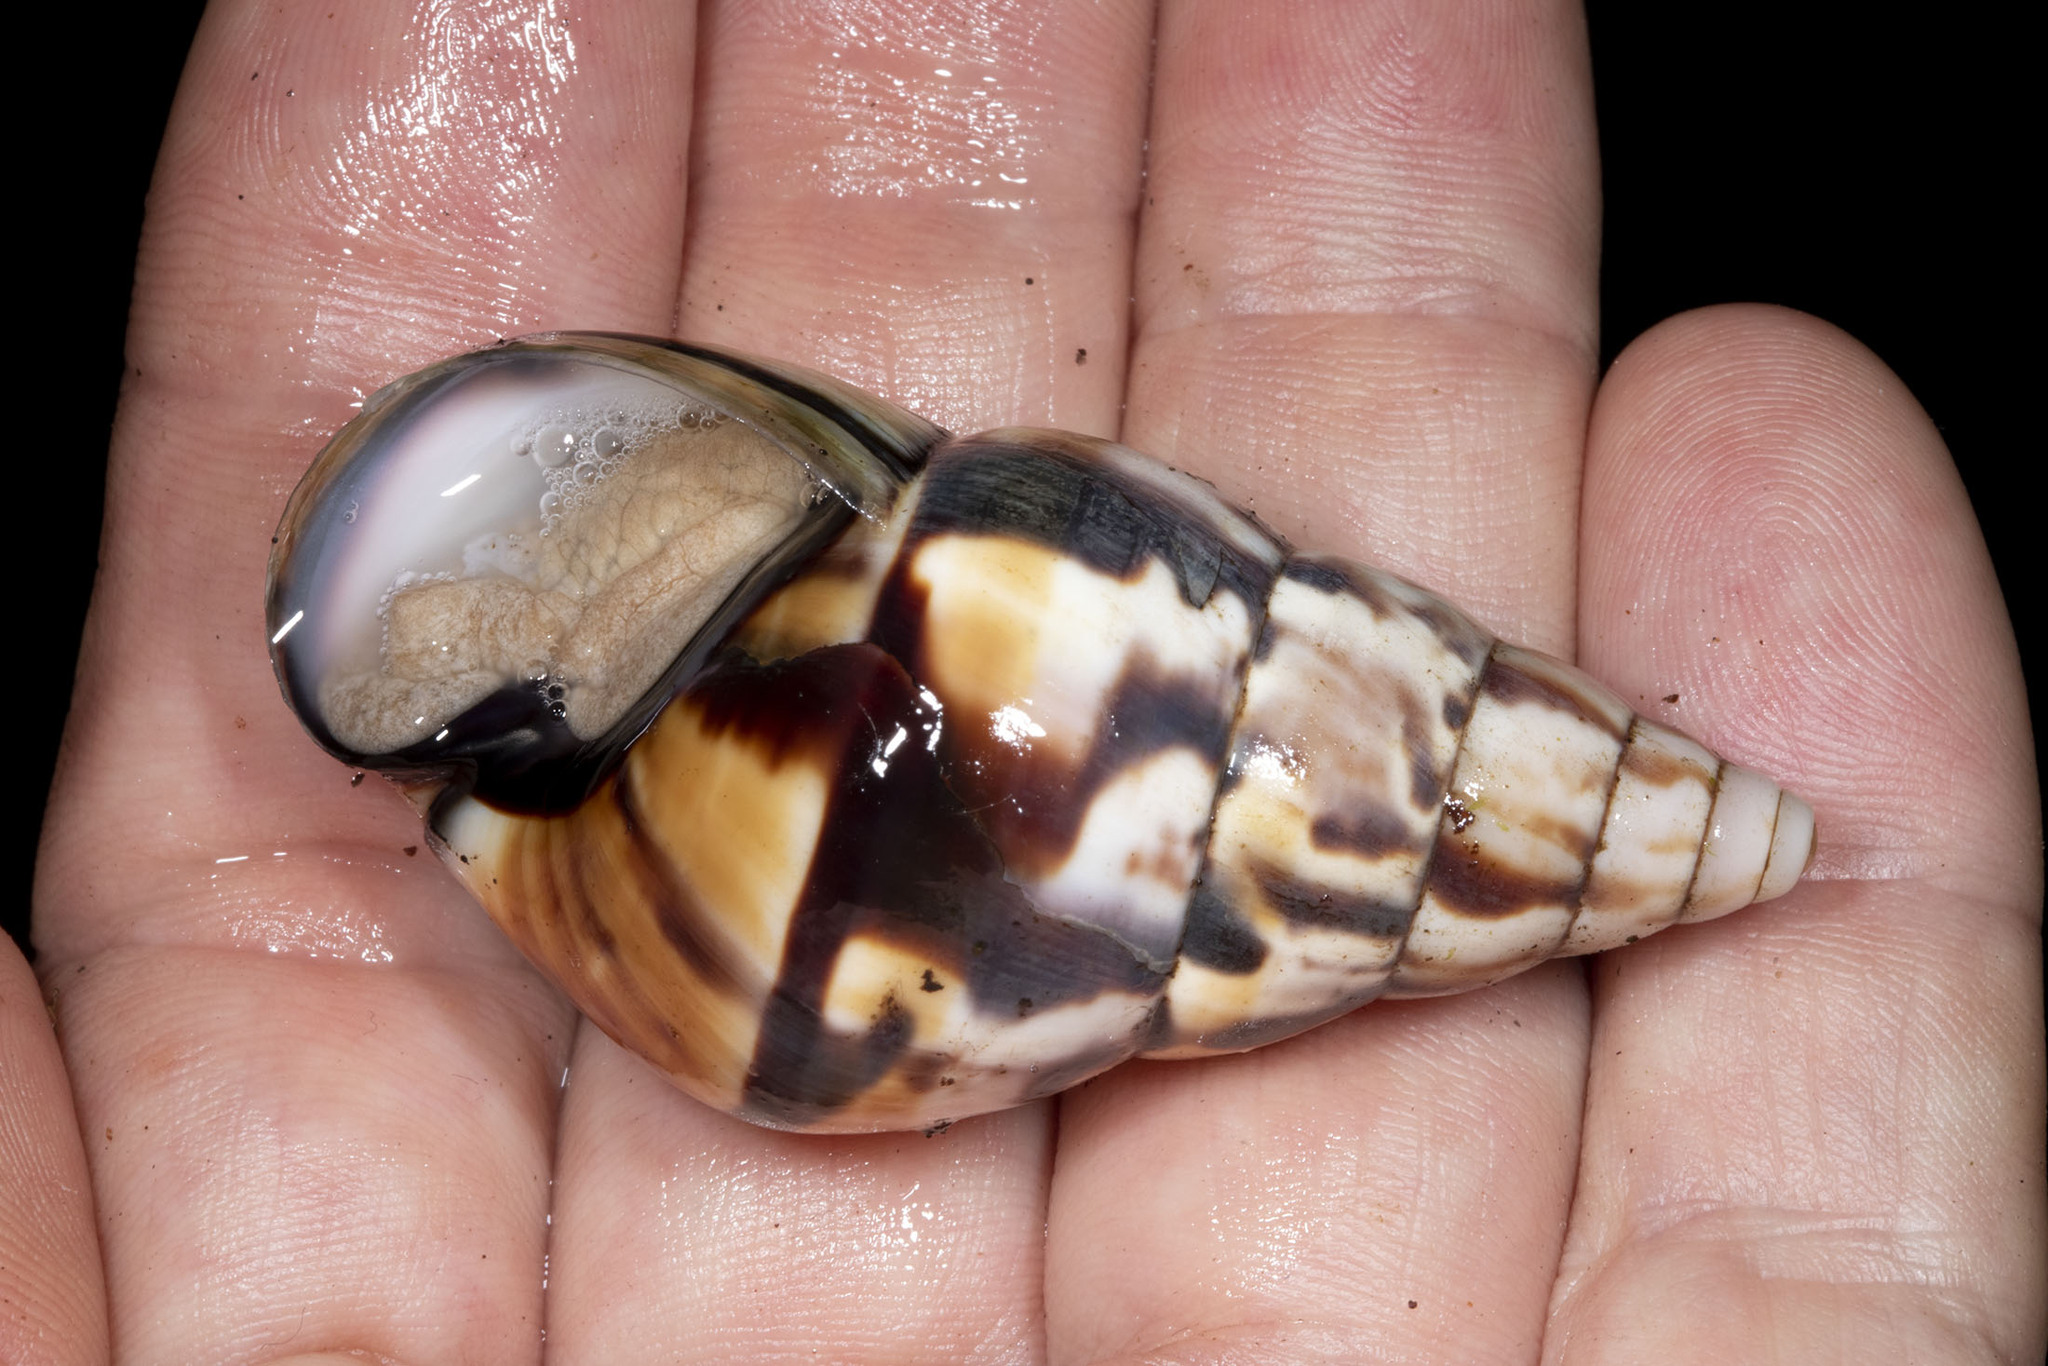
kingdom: Animalia
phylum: Mollusca
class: Gastropoda
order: Stylommatophora
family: Orthalicidae
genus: Corona
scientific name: Corona perversa
